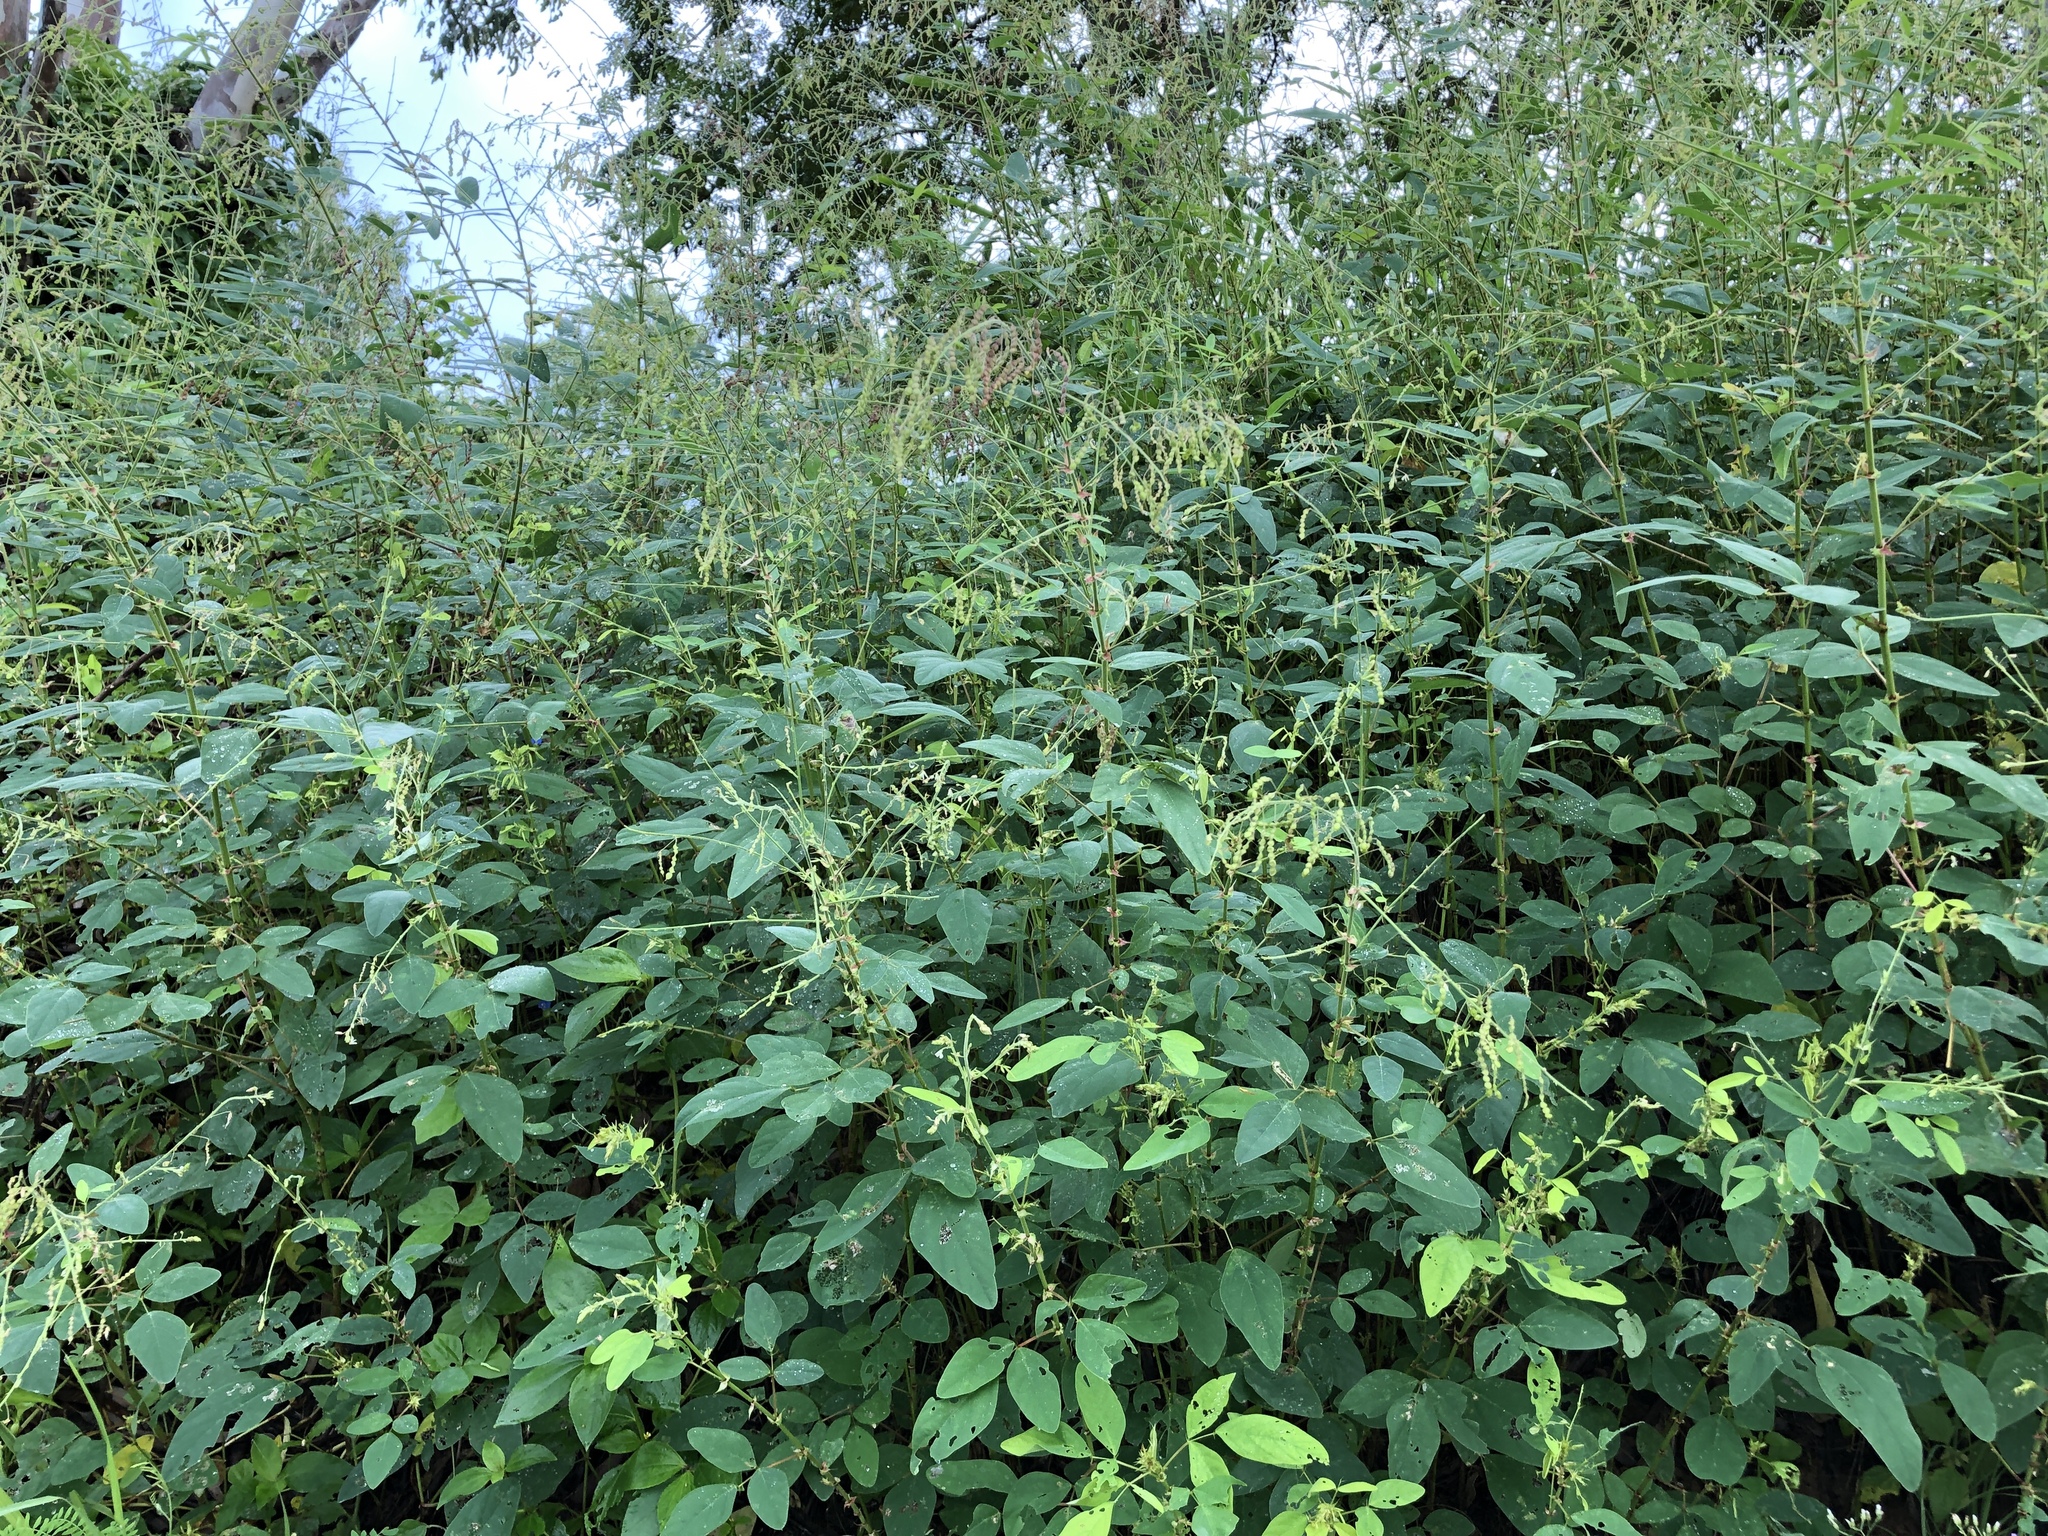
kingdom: Plantae
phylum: Tracheophyta
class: Magnoliopsida
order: Fabales
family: Fabaceae
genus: Desmodium
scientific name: Desmodium tortuosum
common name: Dixie ticktrefoil
